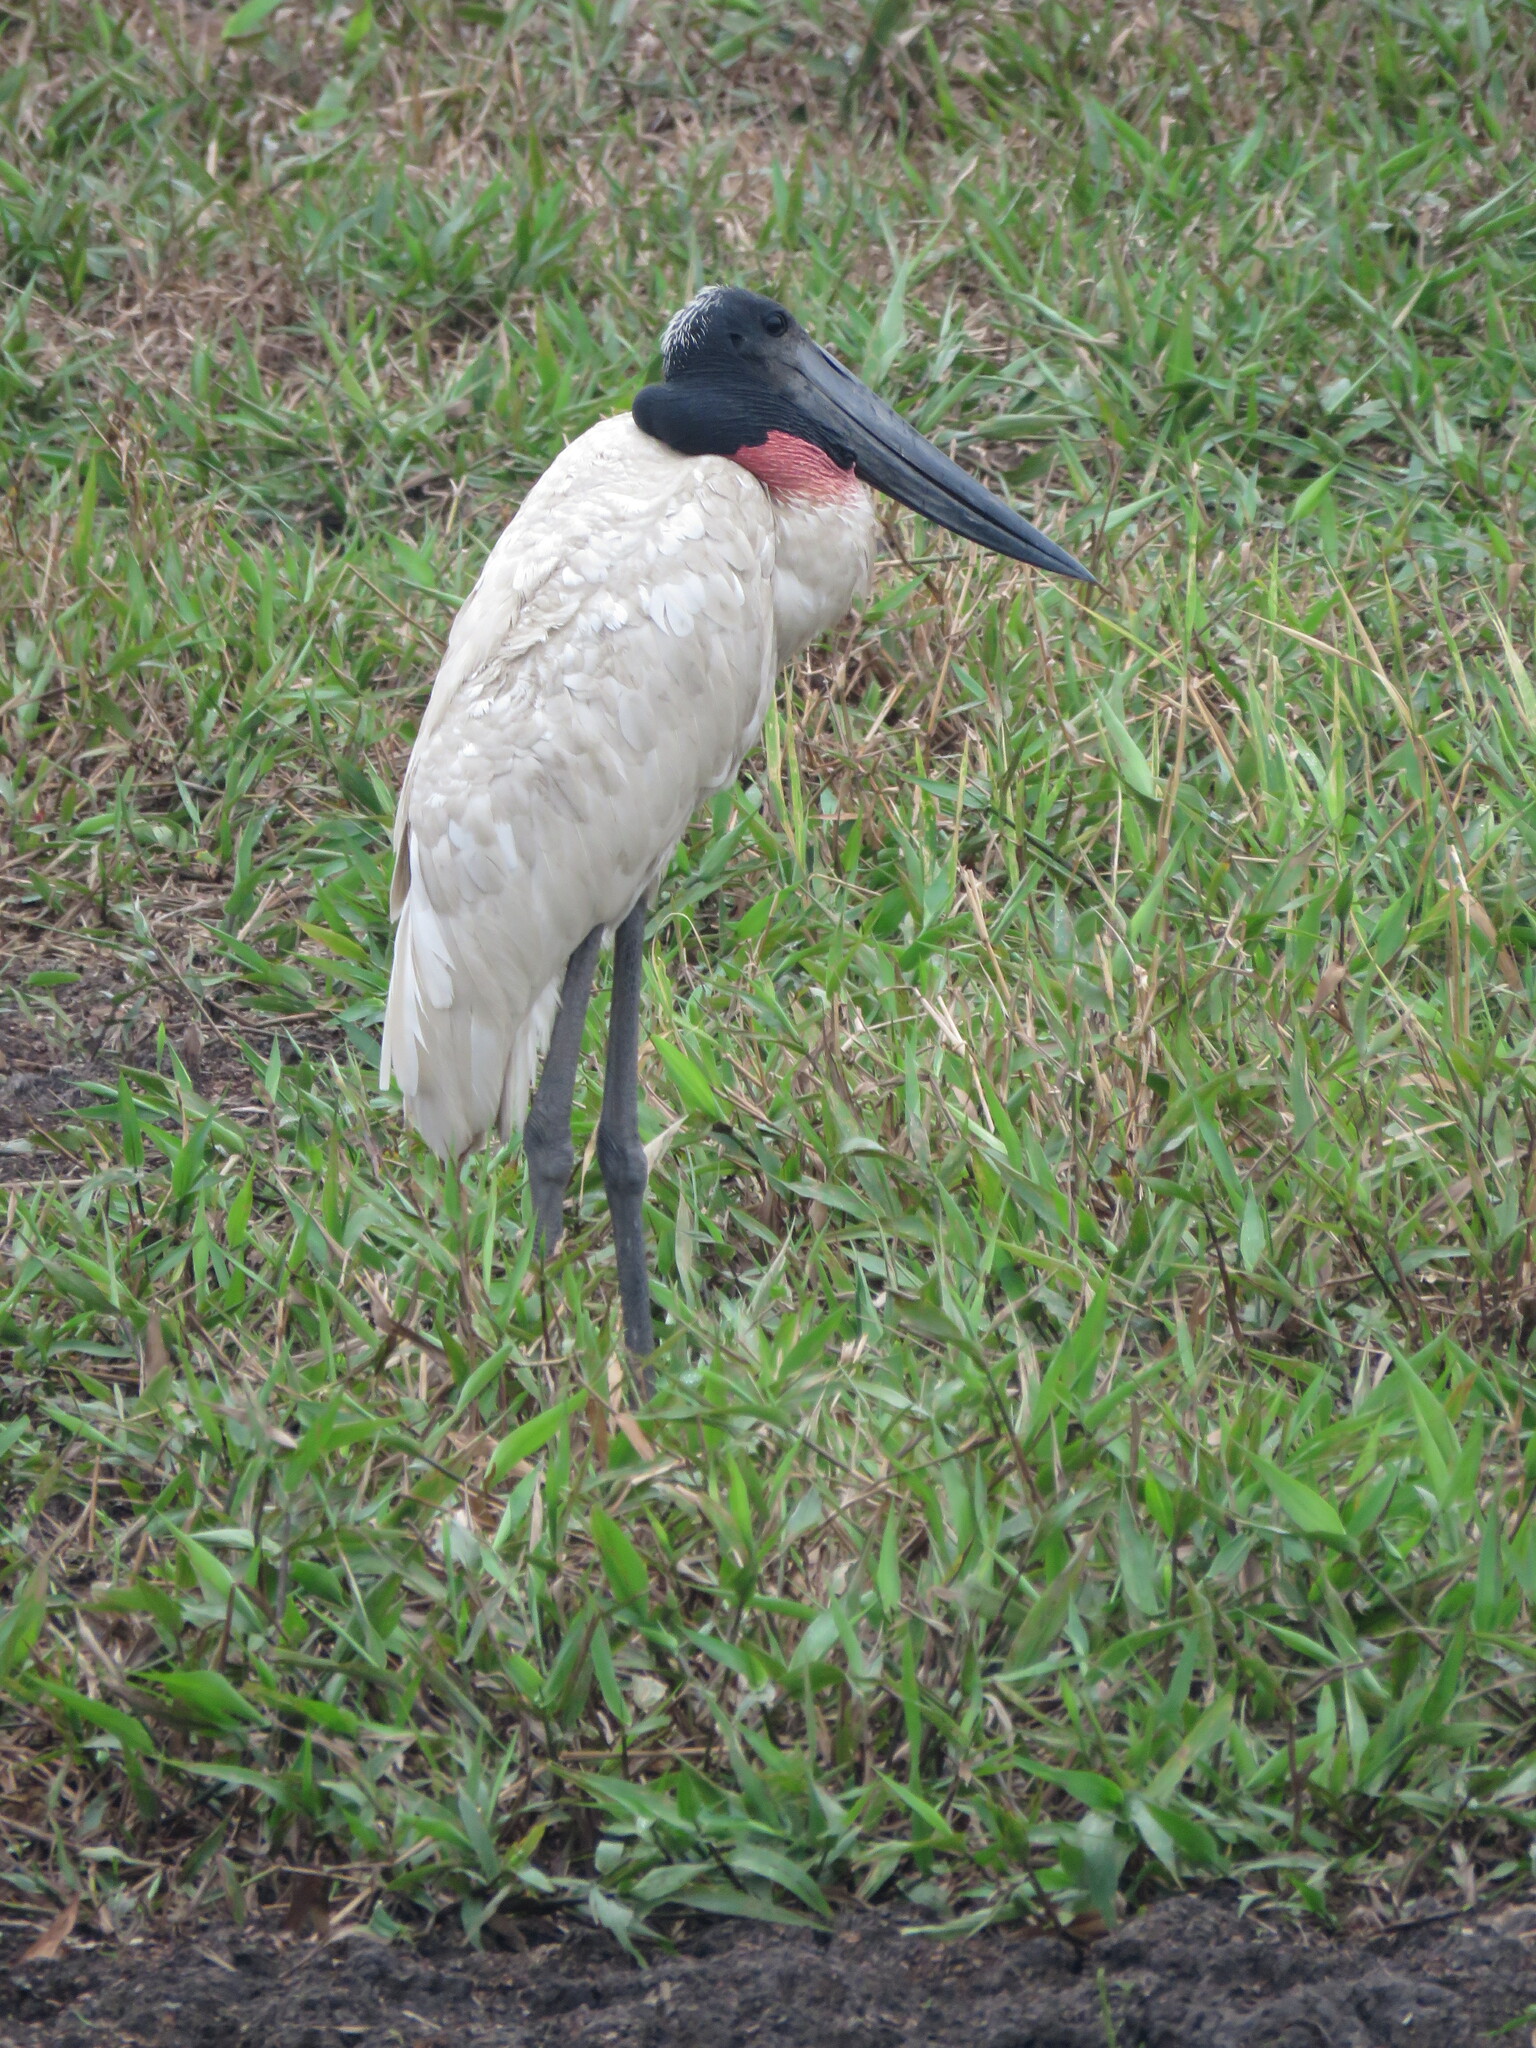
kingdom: Animalia
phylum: Chordata
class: Aves
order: Ciconiiformes
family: Ciconiidae
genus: Jabiru
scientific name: Jabiru mycteria
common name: Jabiru
